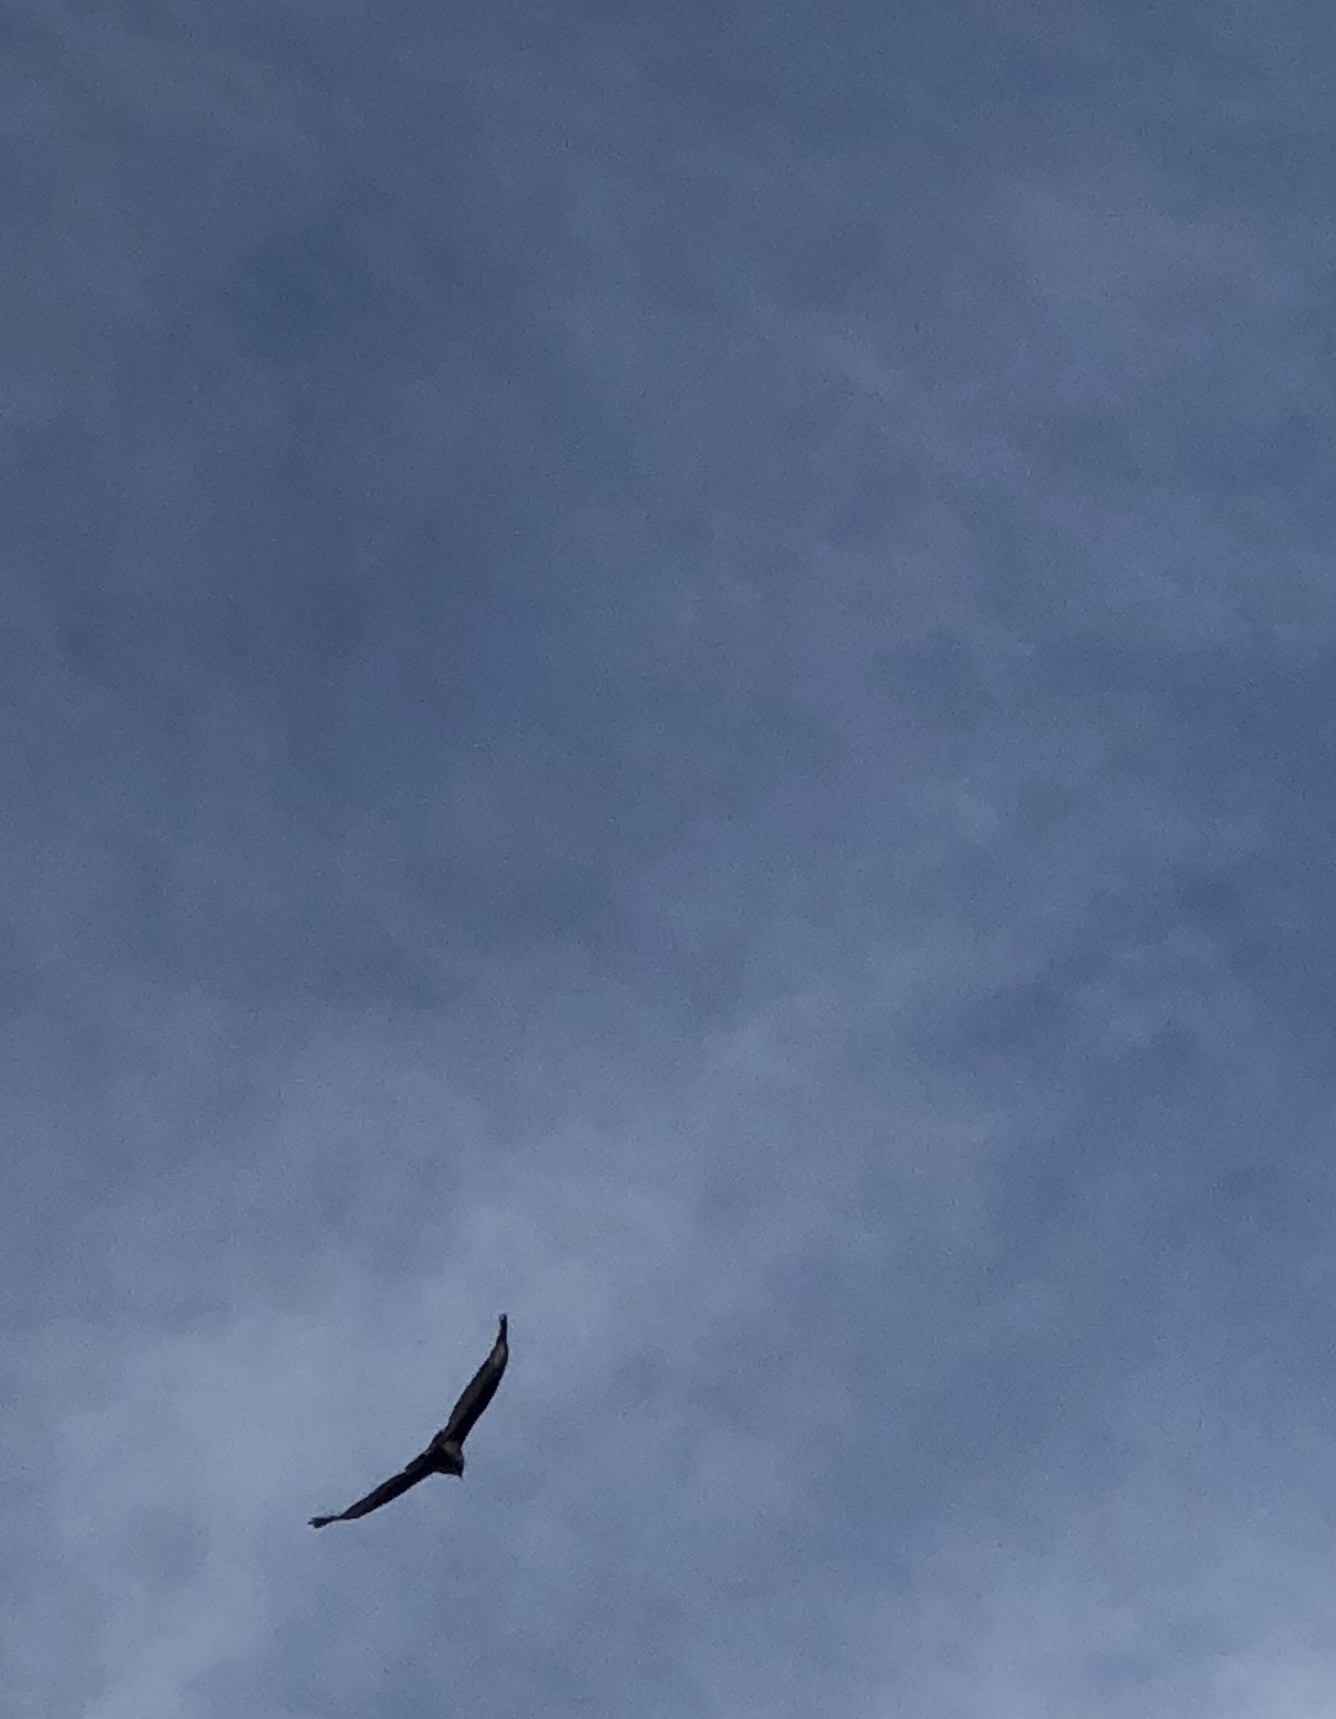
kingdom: Animalia
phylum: Chordata
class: Aves
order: Accipitriformes
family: Cathartidae
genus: Cathartes
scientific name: Cathartes aura
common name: Turkey vulture
